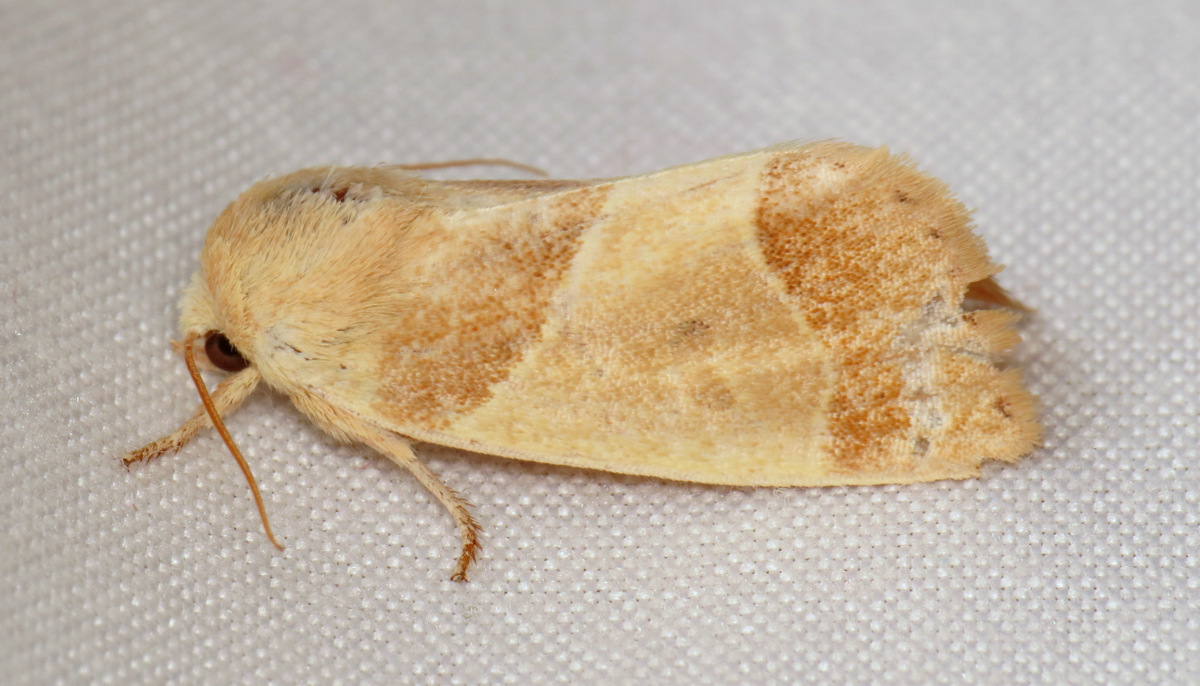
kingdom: Animalia
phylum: Arthropoda
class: Insecta
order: Lepidoptera
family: Noctuidae
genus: Cosmia
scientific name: Cosmia calami
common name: American dun-bar moth
